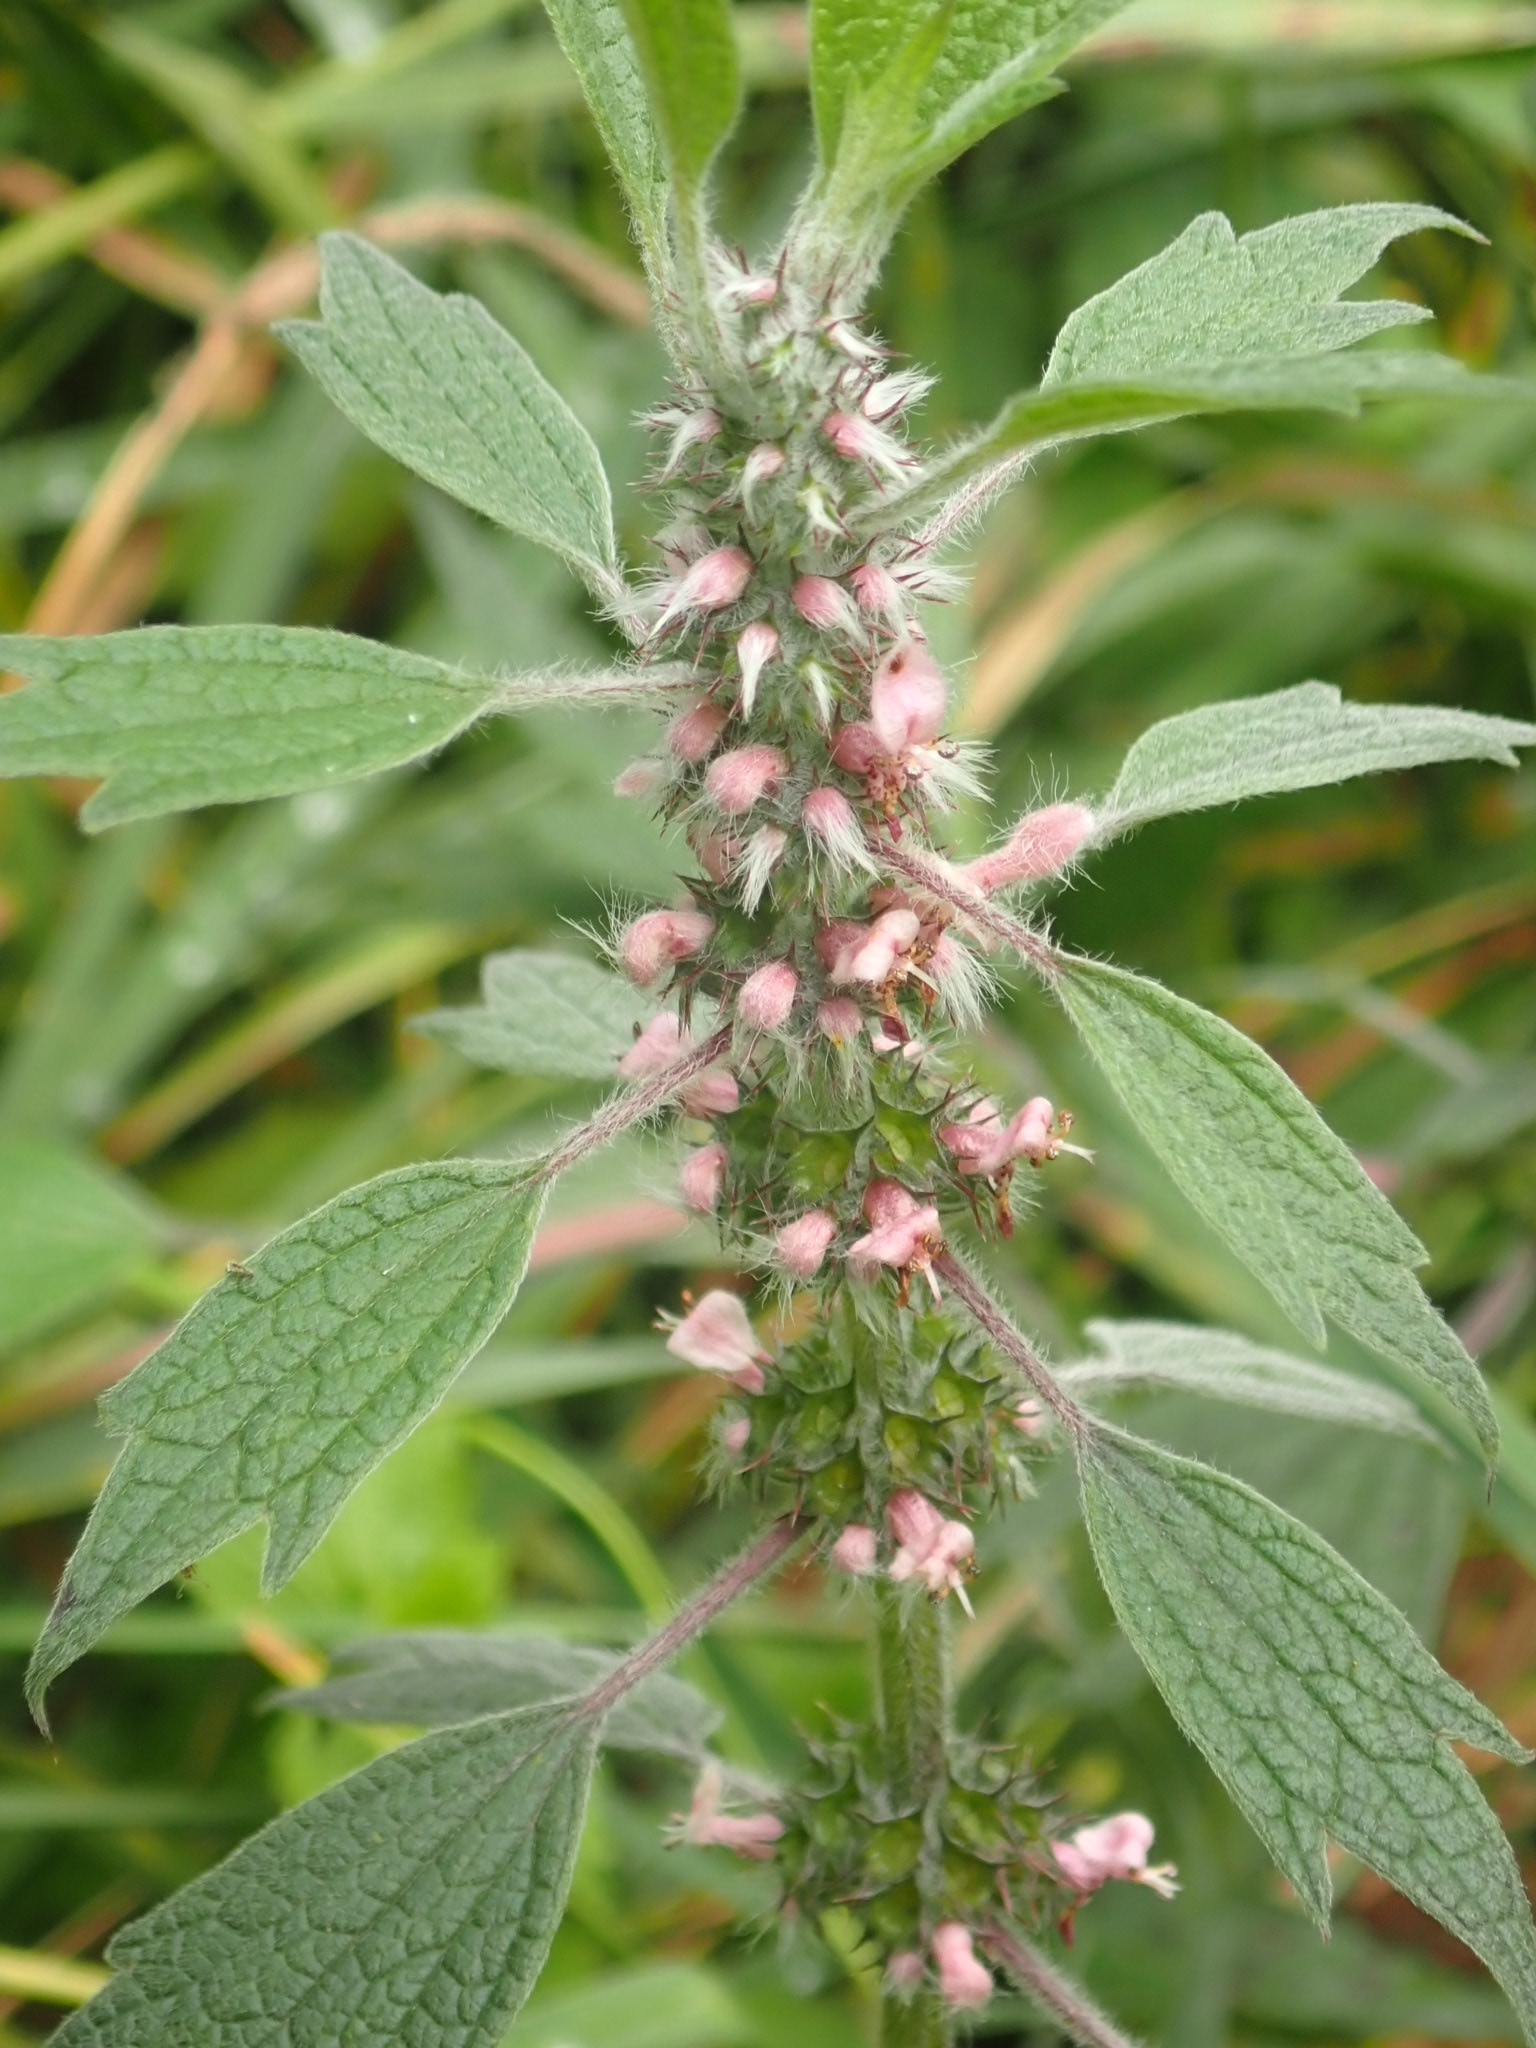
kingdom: Plantae
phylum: Tracheophyta
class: Magnoliopsida
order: Lamiales
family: Lamiaceae
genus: Leonurus
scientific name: Leonurus quinquelobatus
